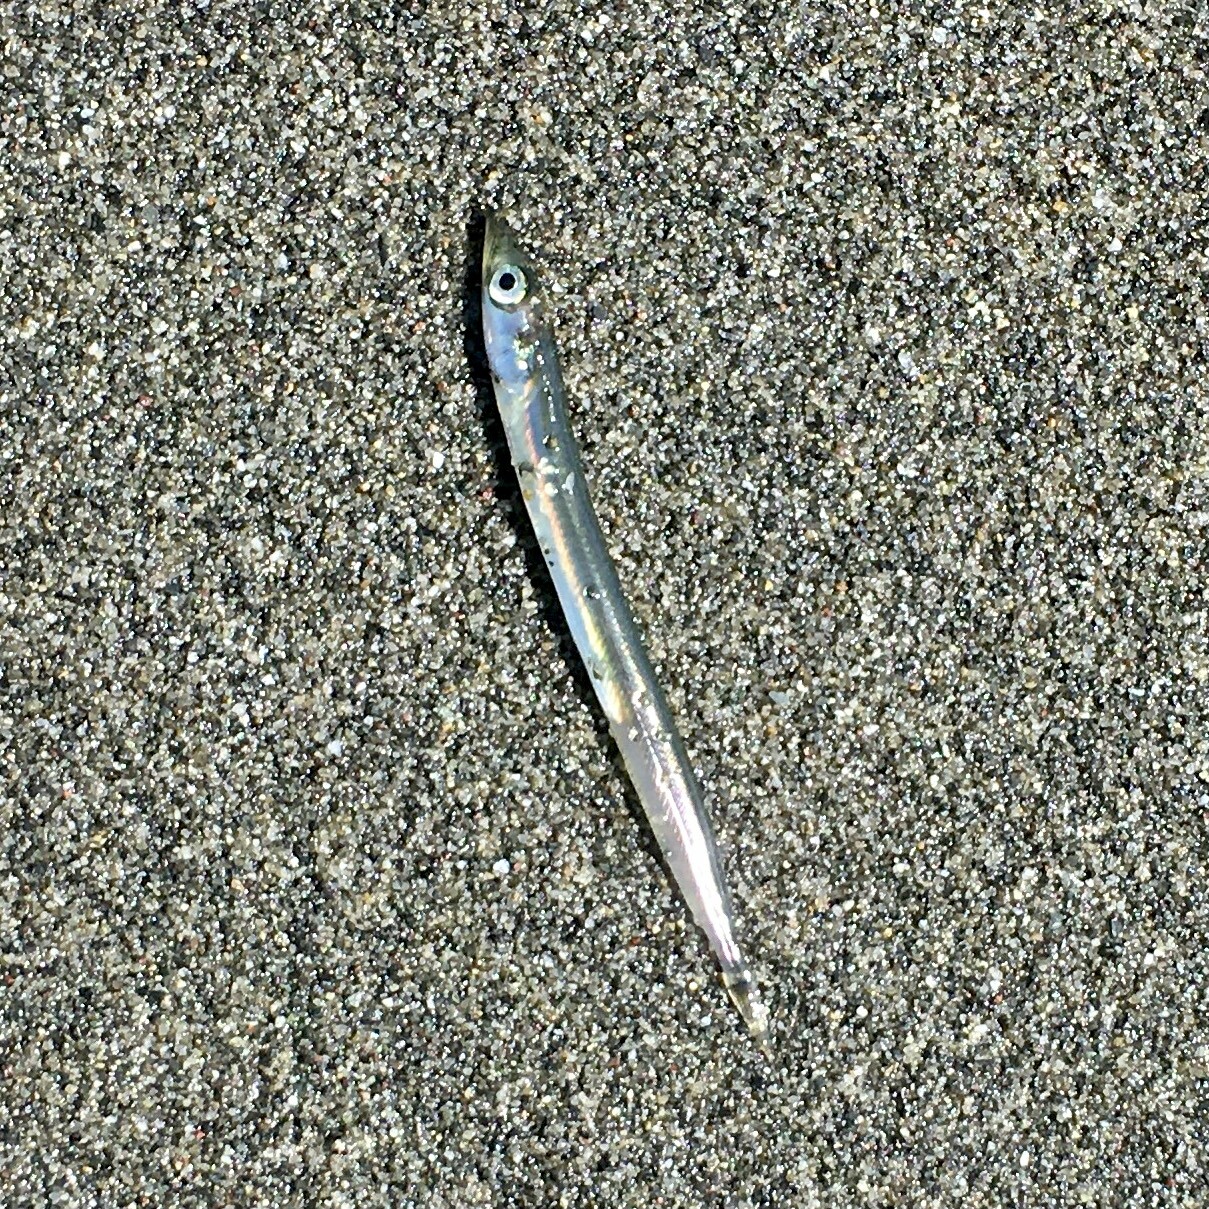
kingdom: Animalia
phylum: Chordata
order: Perciformes
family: Ammodytidae
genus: Ammodytes
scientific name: Ammodytes personatus
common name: Japanese sand lance
